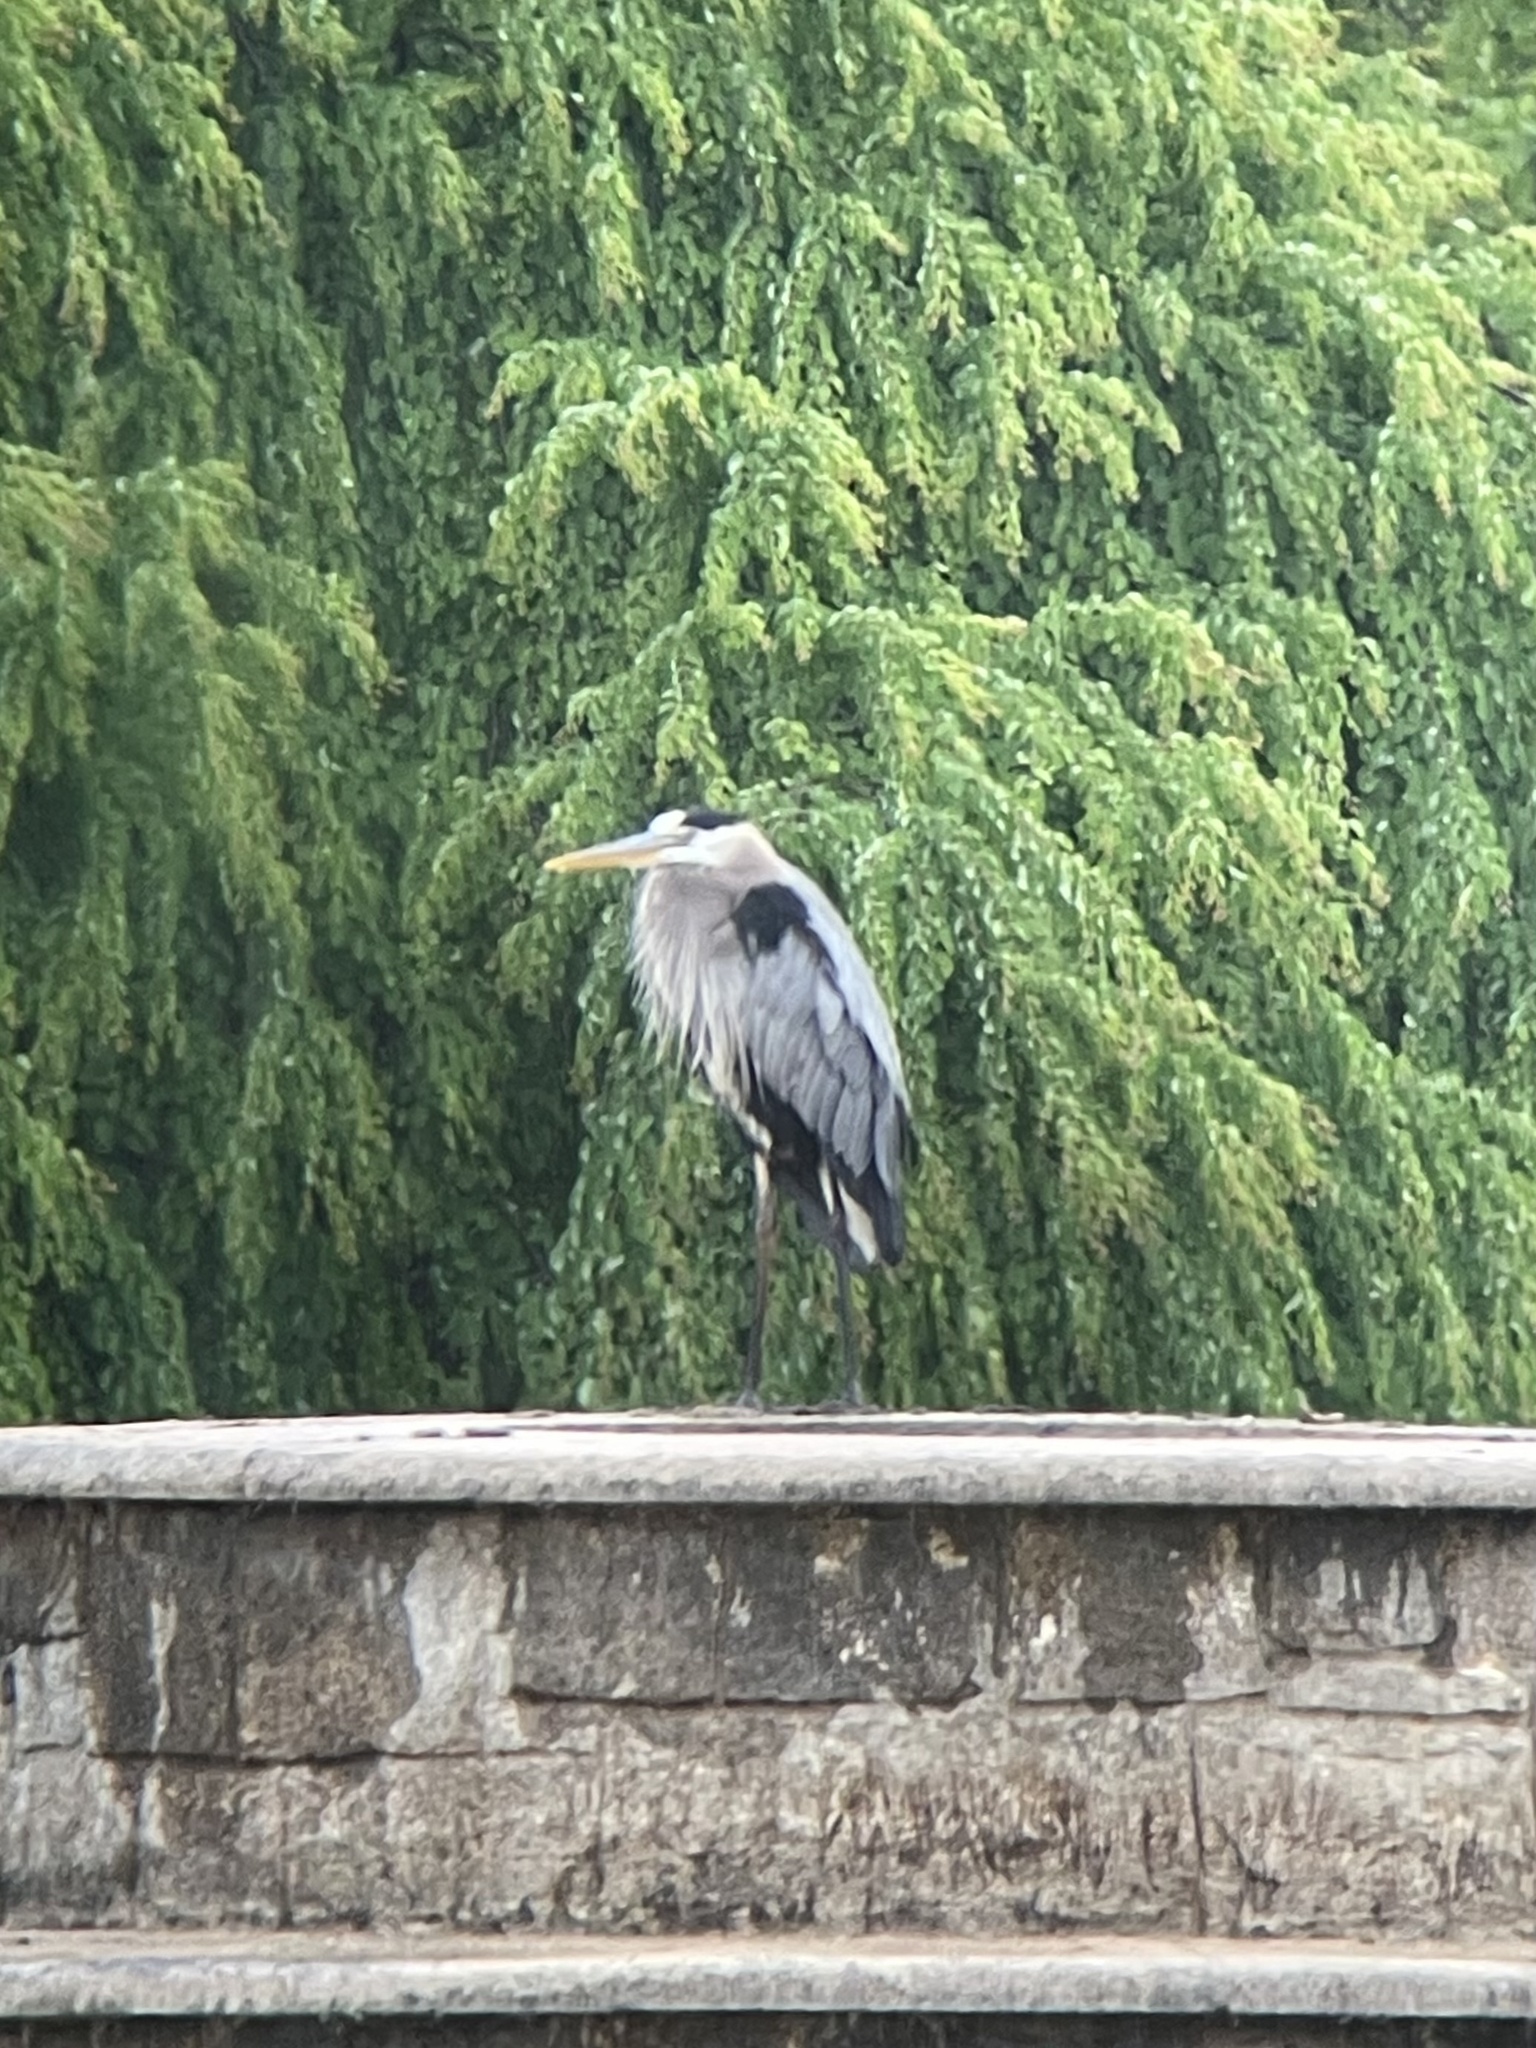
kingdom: Animalia
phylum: Chordata
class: Aves
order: Pelecaniformes
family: Ardeidae
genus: Ardea
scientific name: Ardea herodias
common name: Great blue heron
